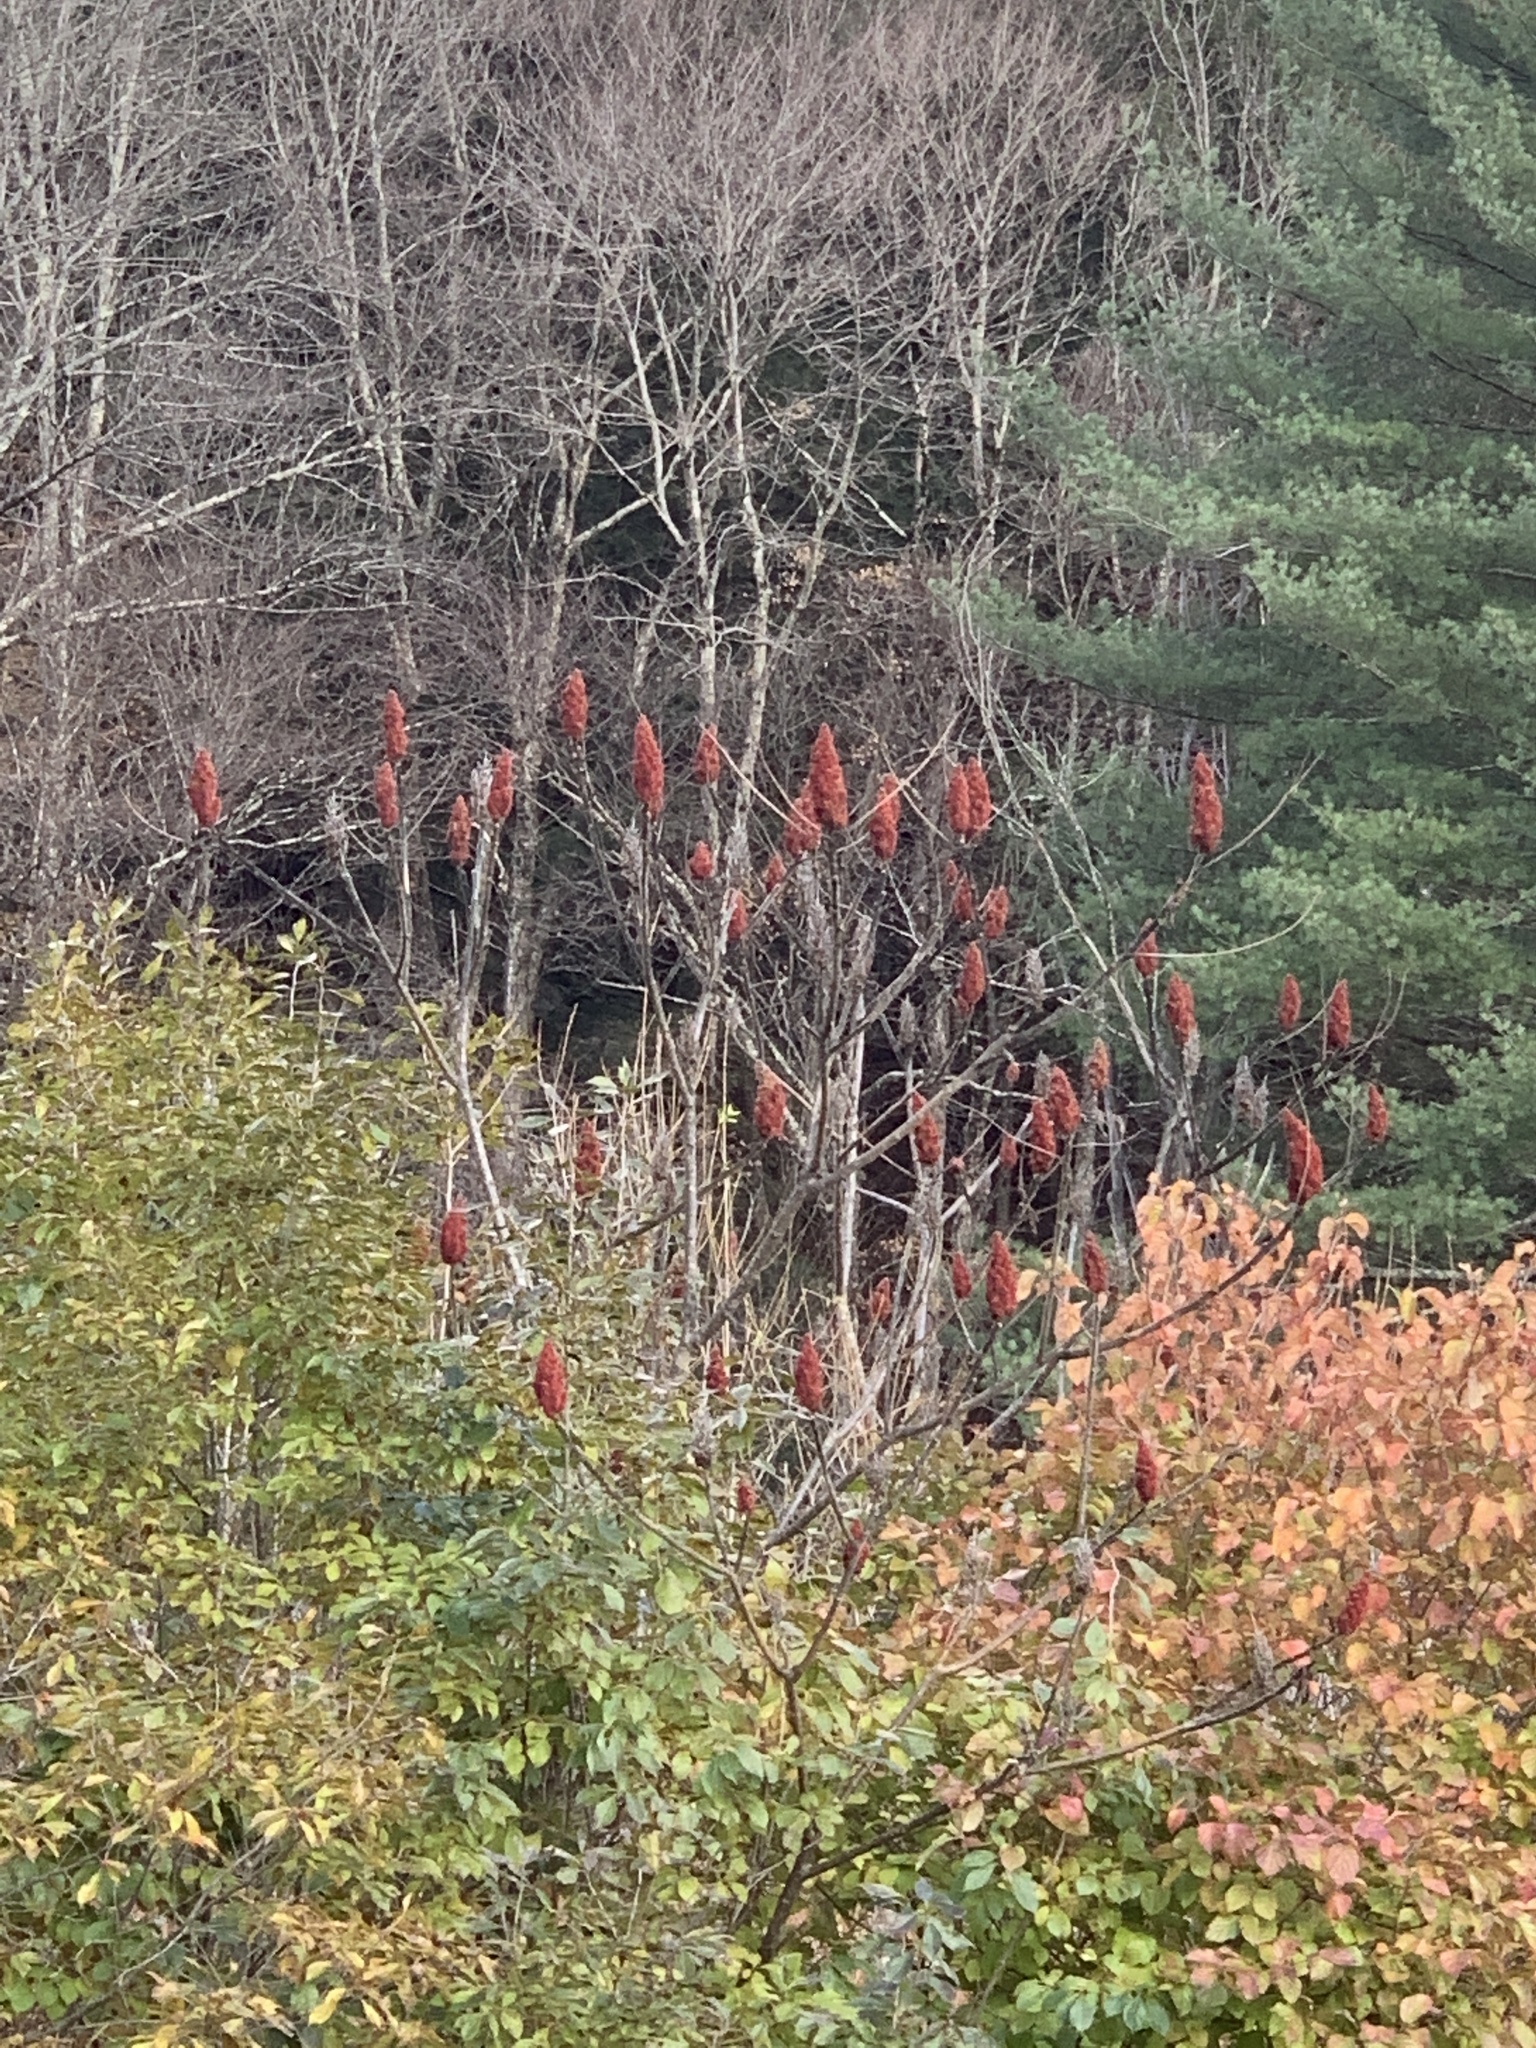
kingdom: Plantae
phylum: Tracheophyta
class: Magnoliopsida
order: Sapindales
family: Anacardiaceae
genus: Rhus
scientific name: Rhus typhina
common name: Staghorn sumac
